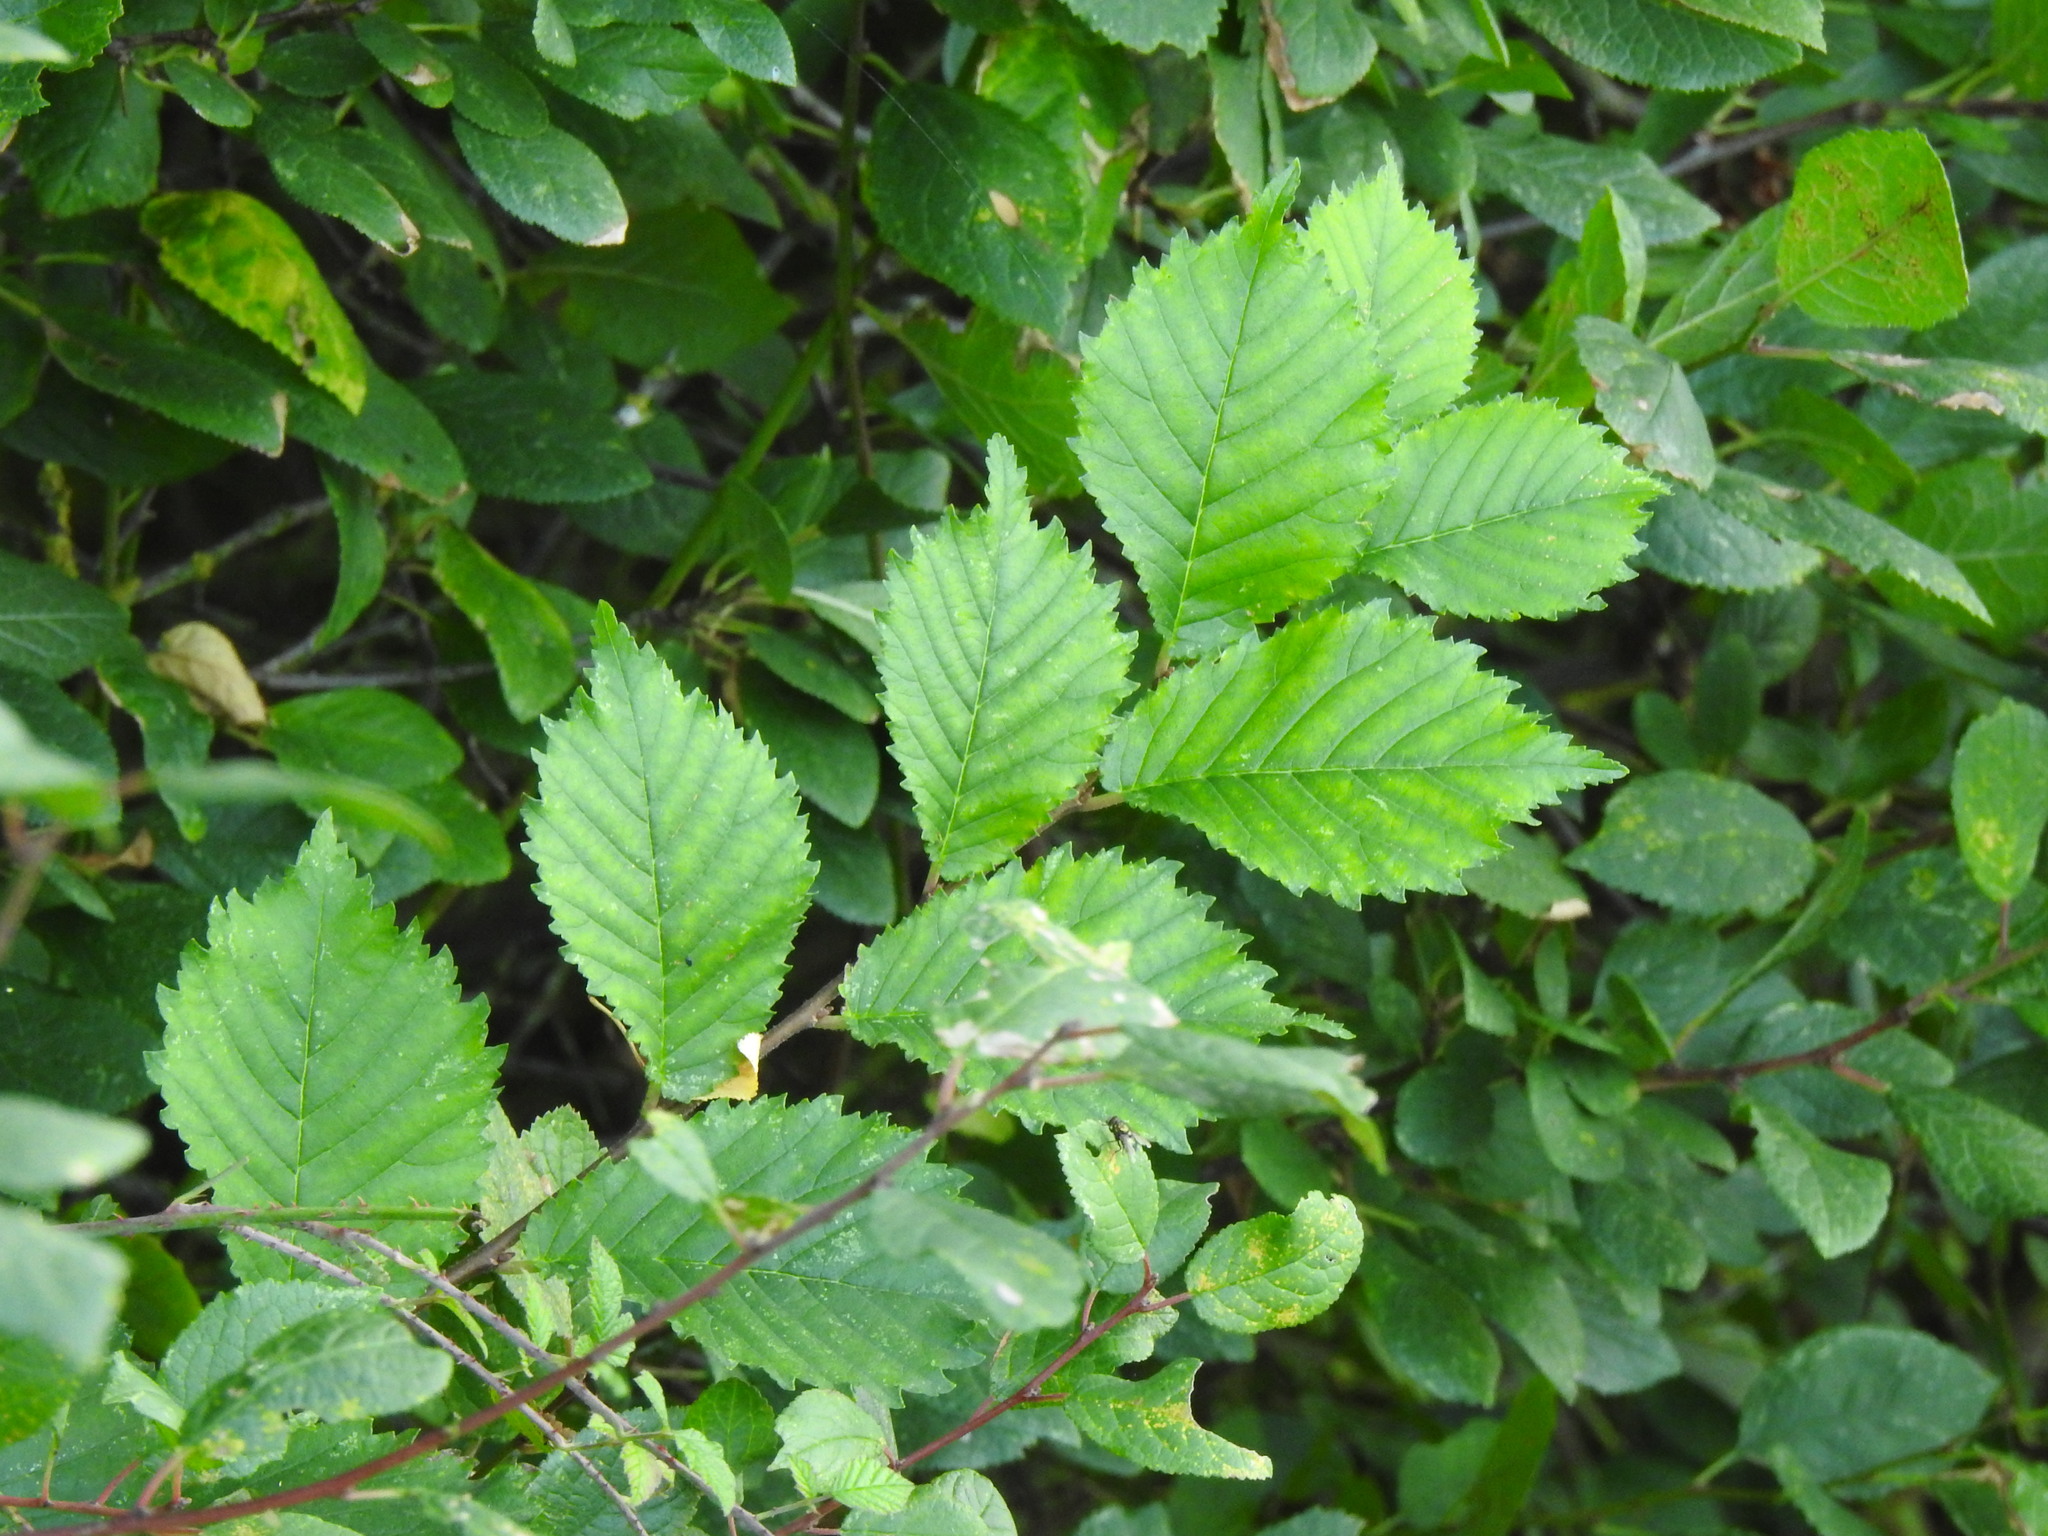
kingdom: Plantae
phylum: Tracheophyta
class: Magnoliopsida
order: Rosales
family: Ulmaceae
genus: Ulmus
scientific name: Ulmus glabra
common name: Wych elm
